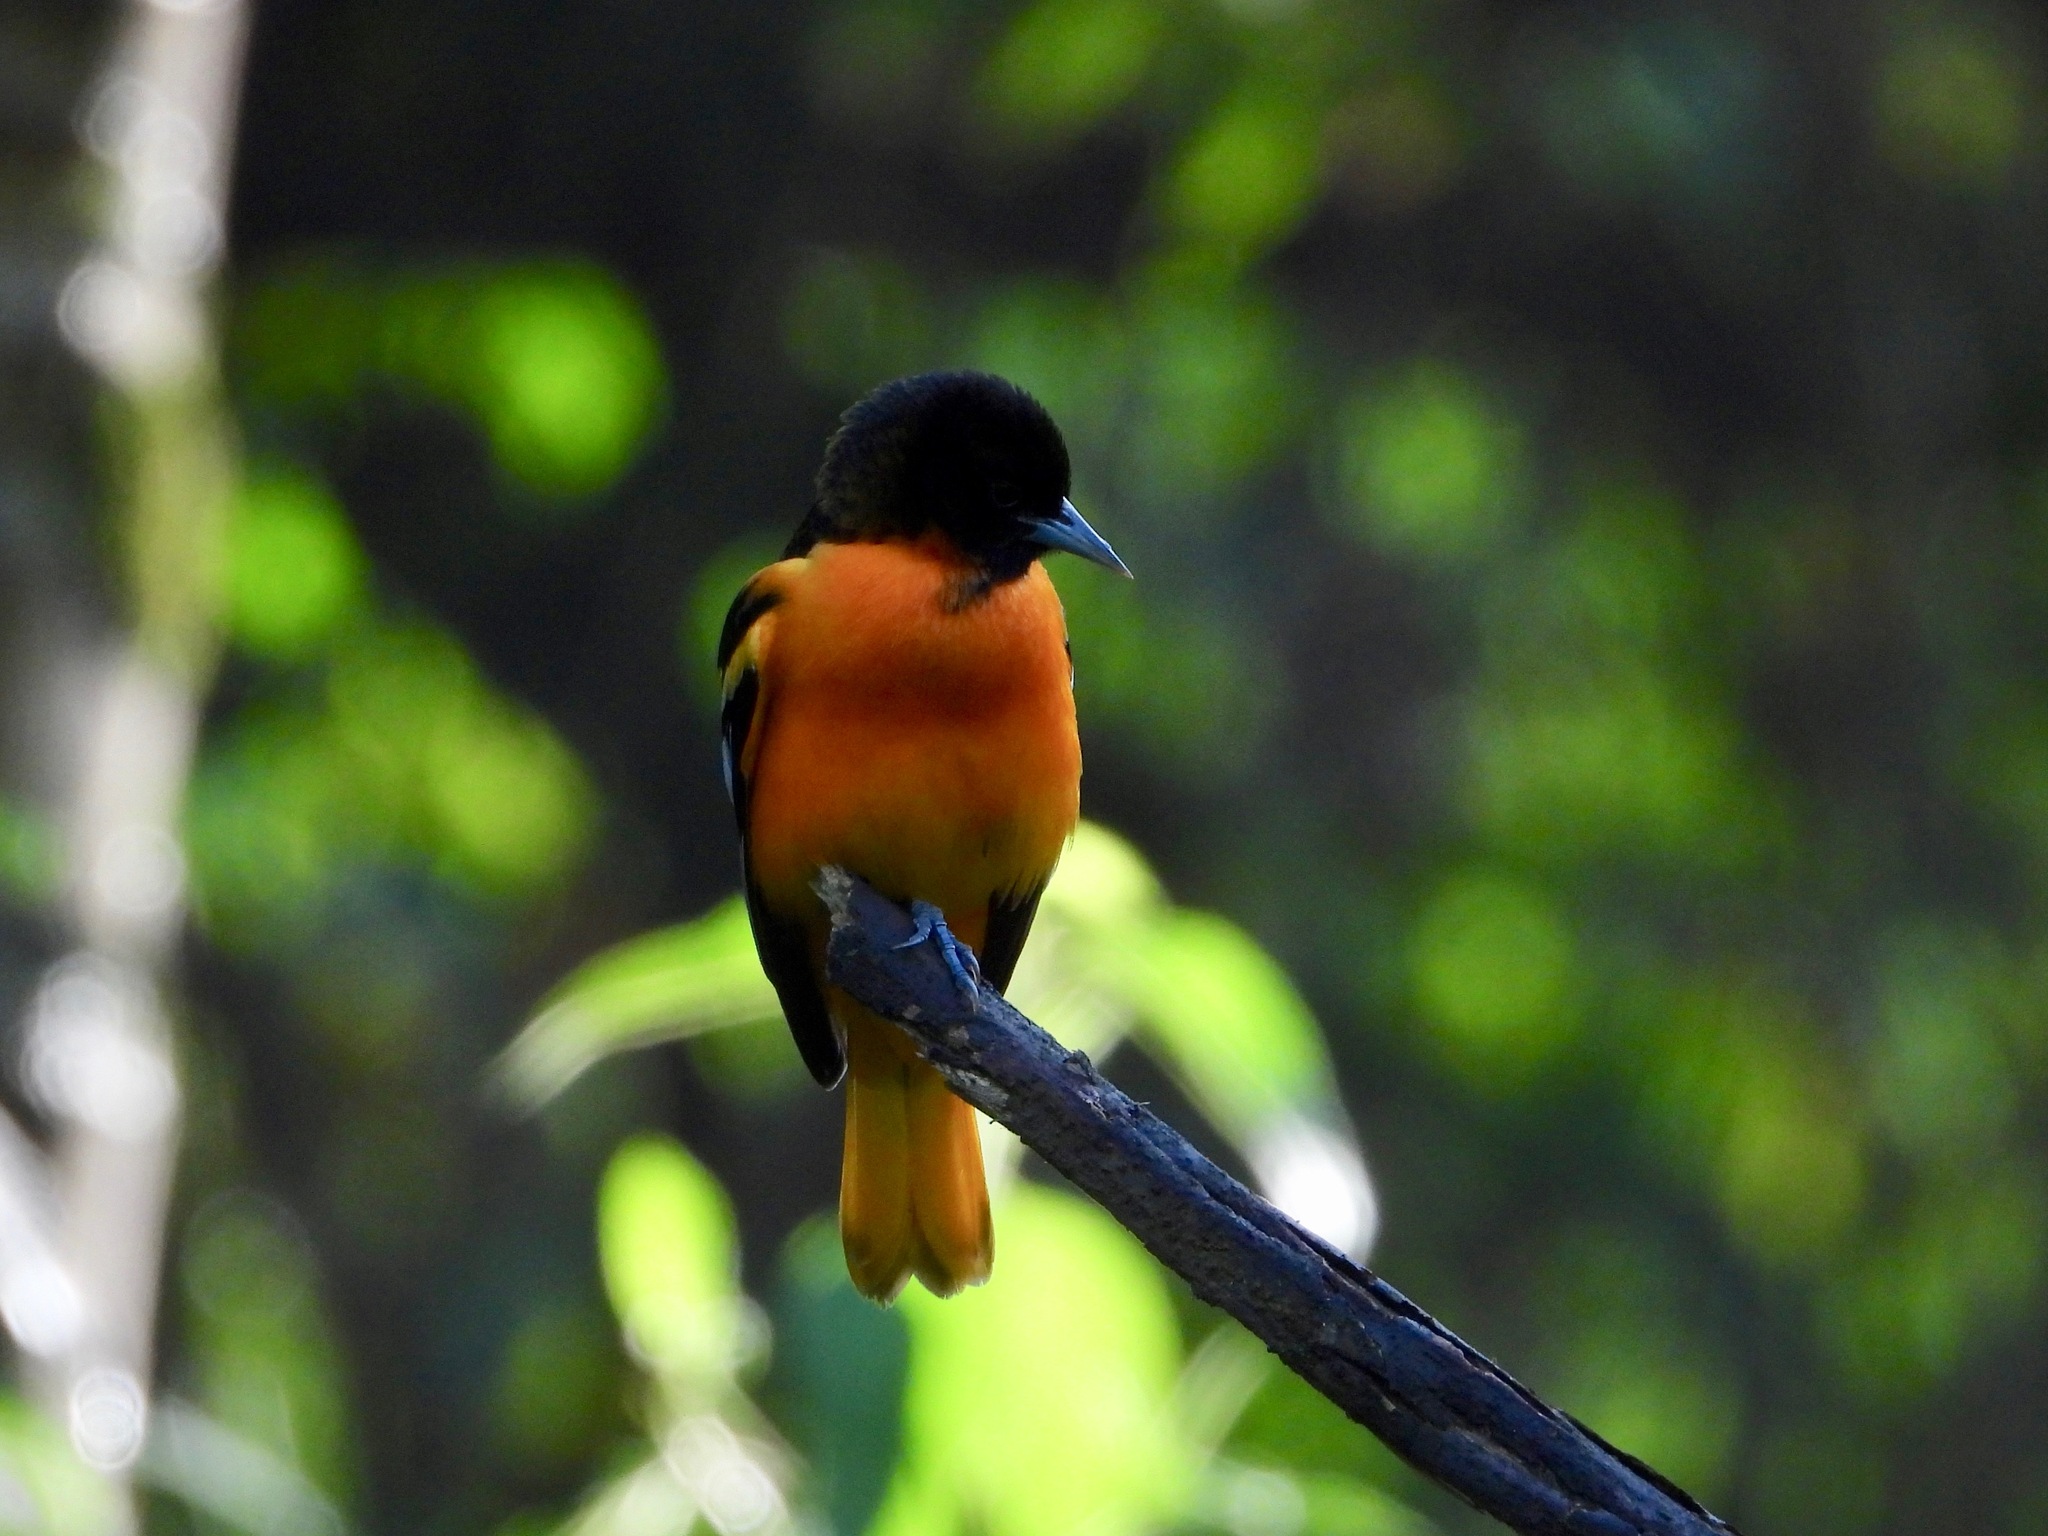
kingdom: Animalia
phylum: Chordata
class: Aves
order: Passeriformes
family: Icteridae
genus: Icterus
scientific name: Icterus galbula
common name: Baltimore oriole
